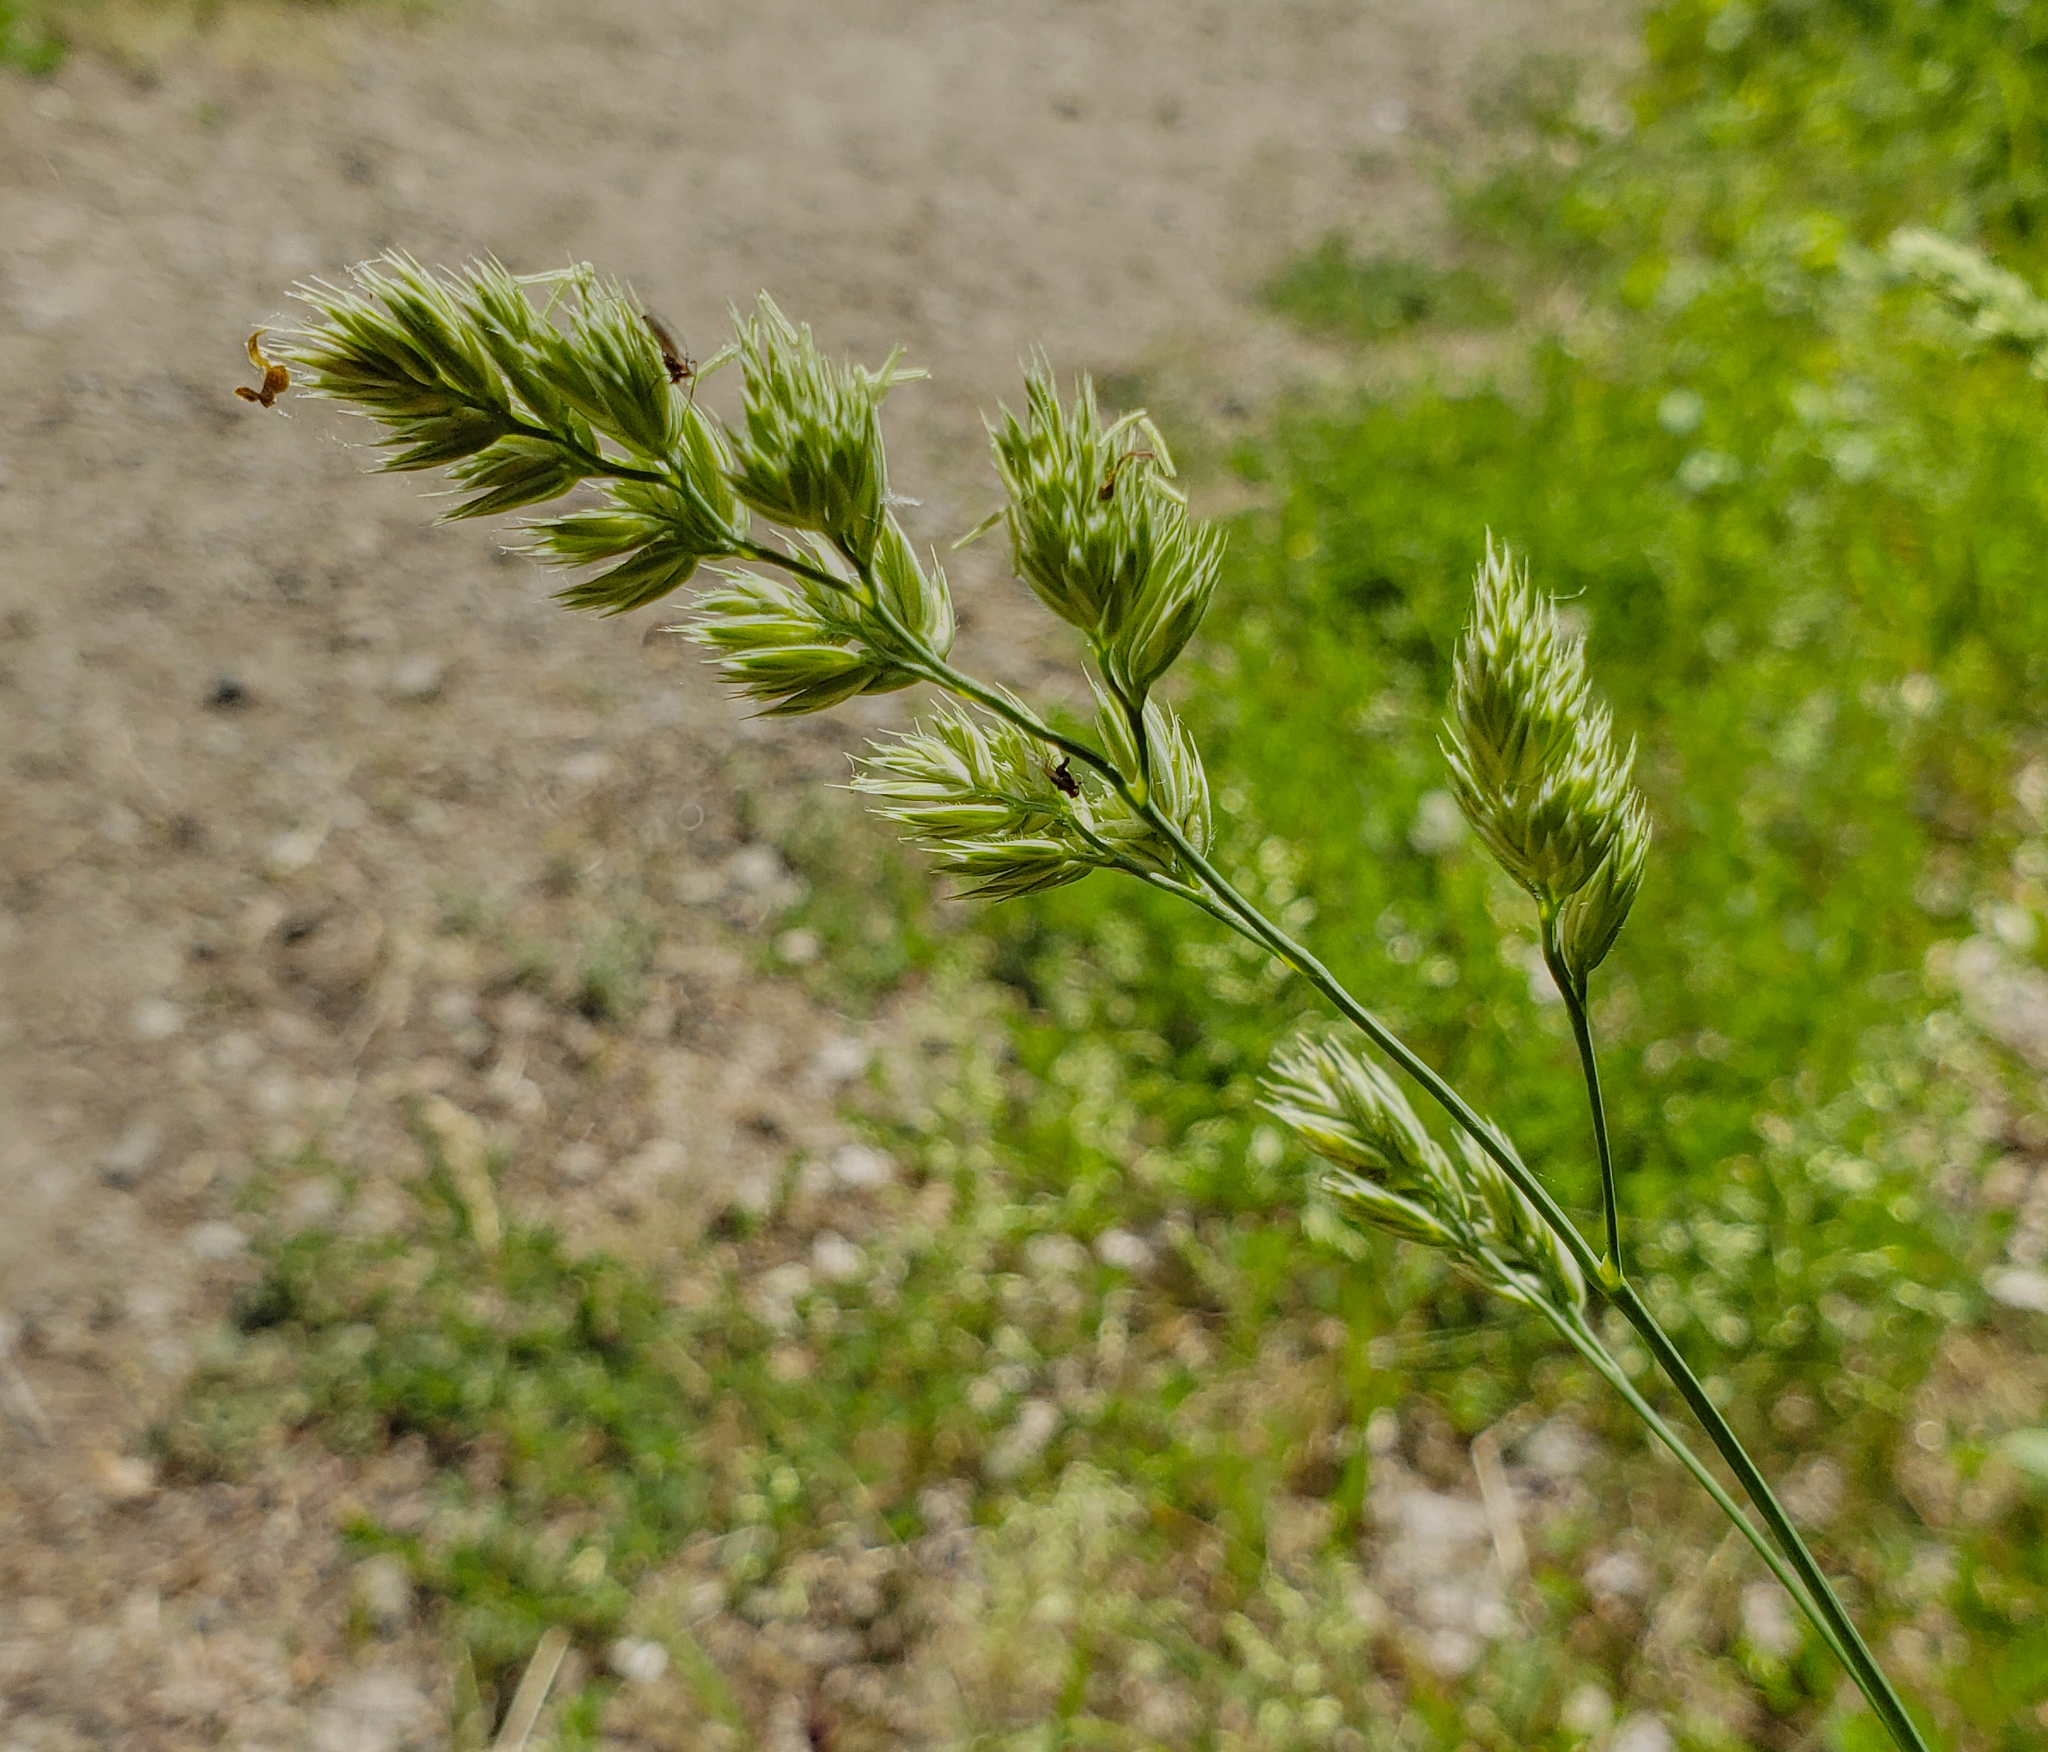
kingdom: Plantae
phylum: Tracheophyta
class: Liliopsida
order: Poales
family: Poaceae
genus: Dactylis
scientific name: Dactylis glomerata
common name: Orchardgrass
